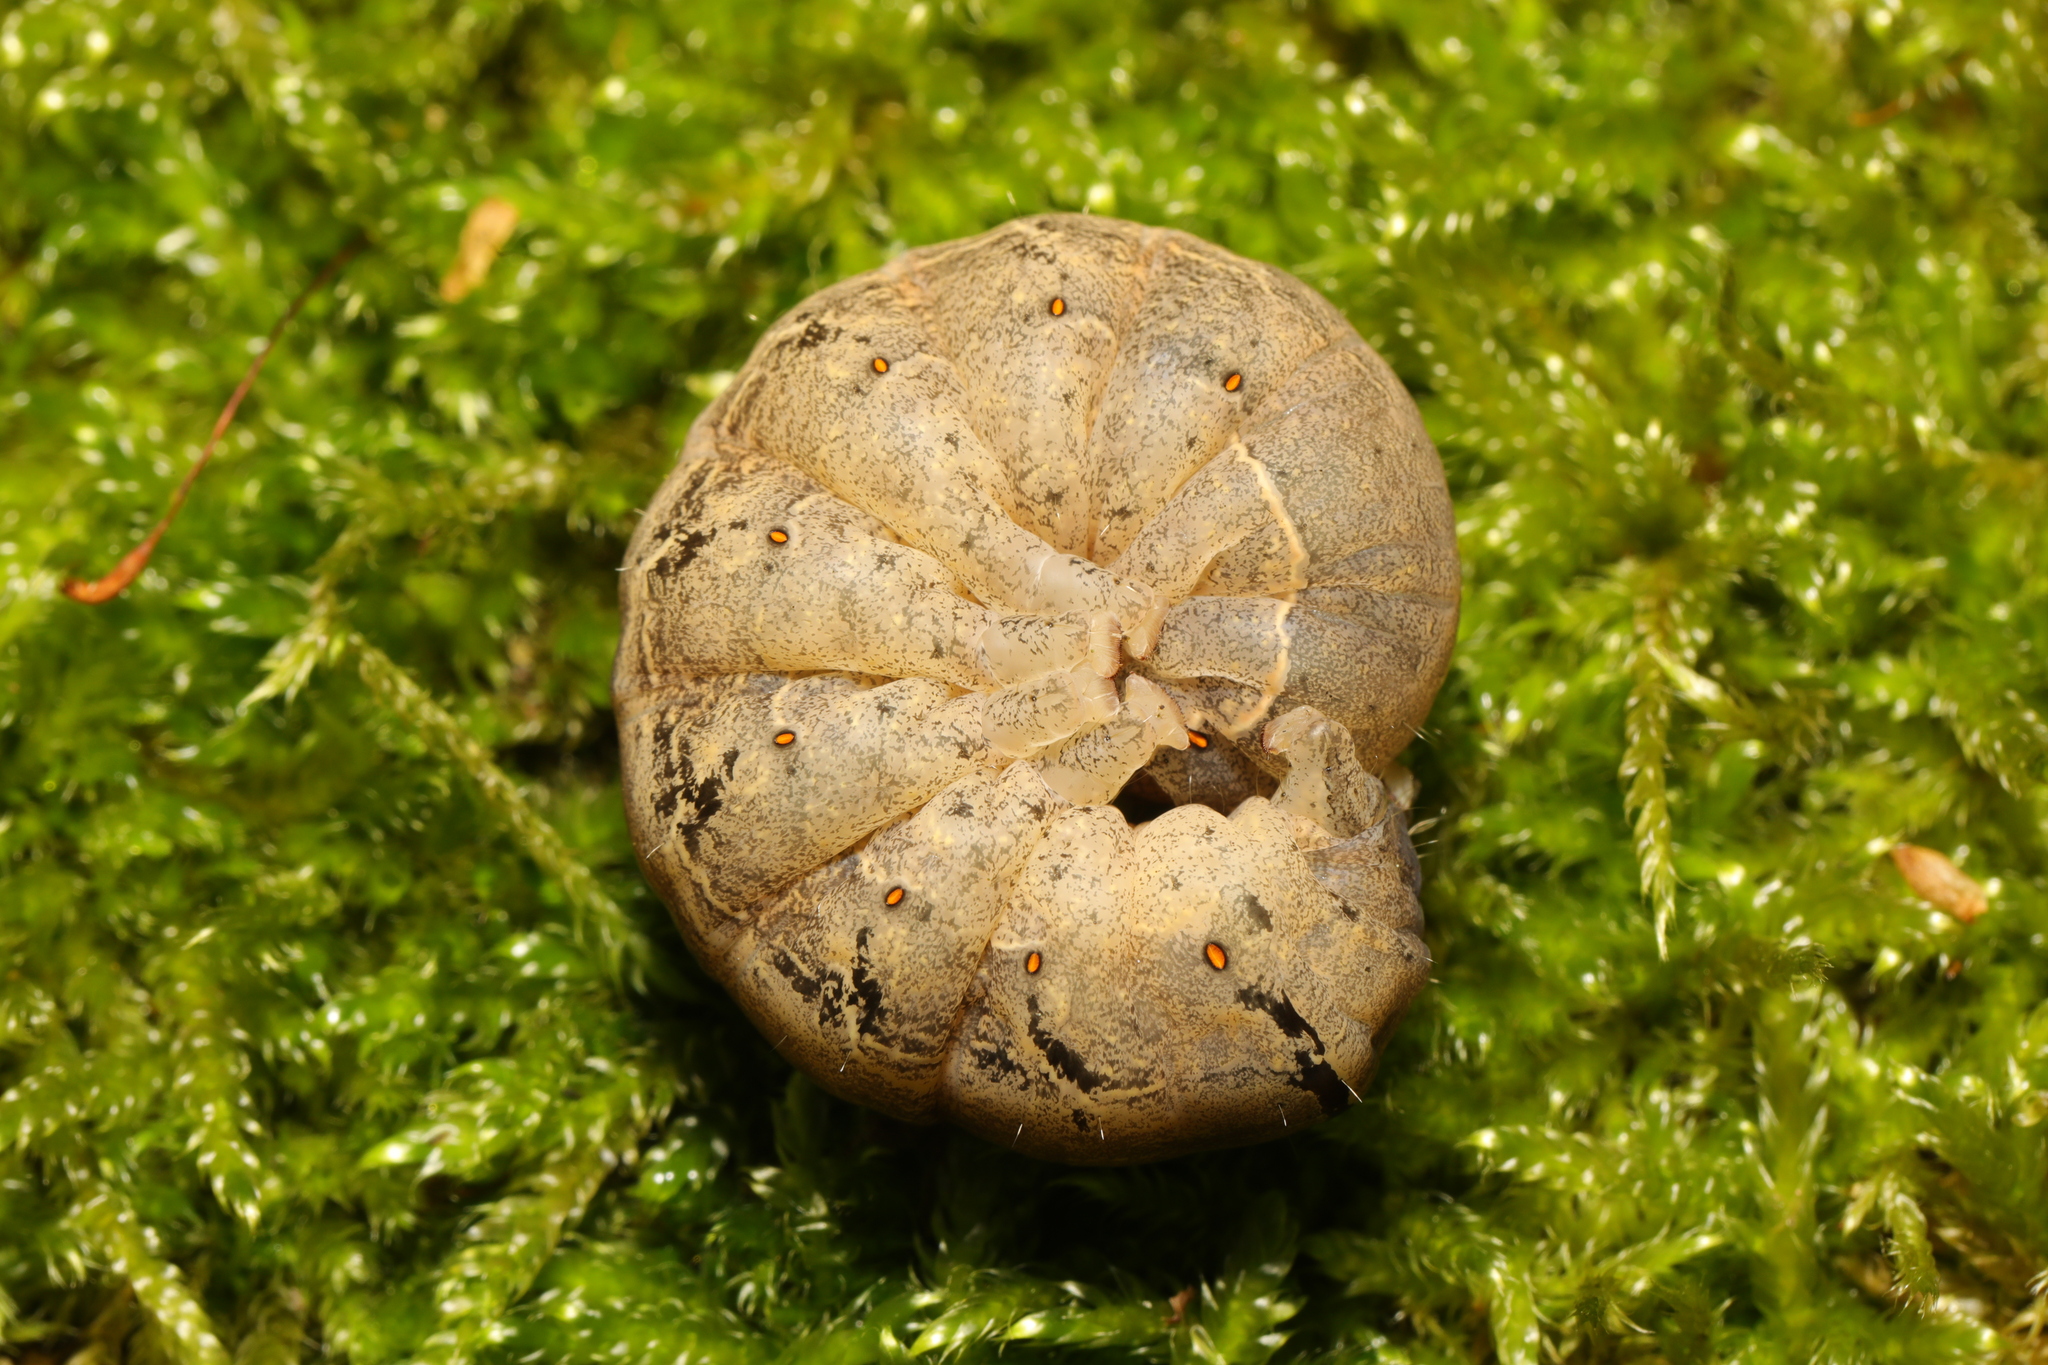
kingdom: Animalia
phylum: Arthropoda
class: Insecta
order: Lepidoptera
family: Noctuidae
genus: Mormo
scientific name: Mormo maura
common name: Old lady
